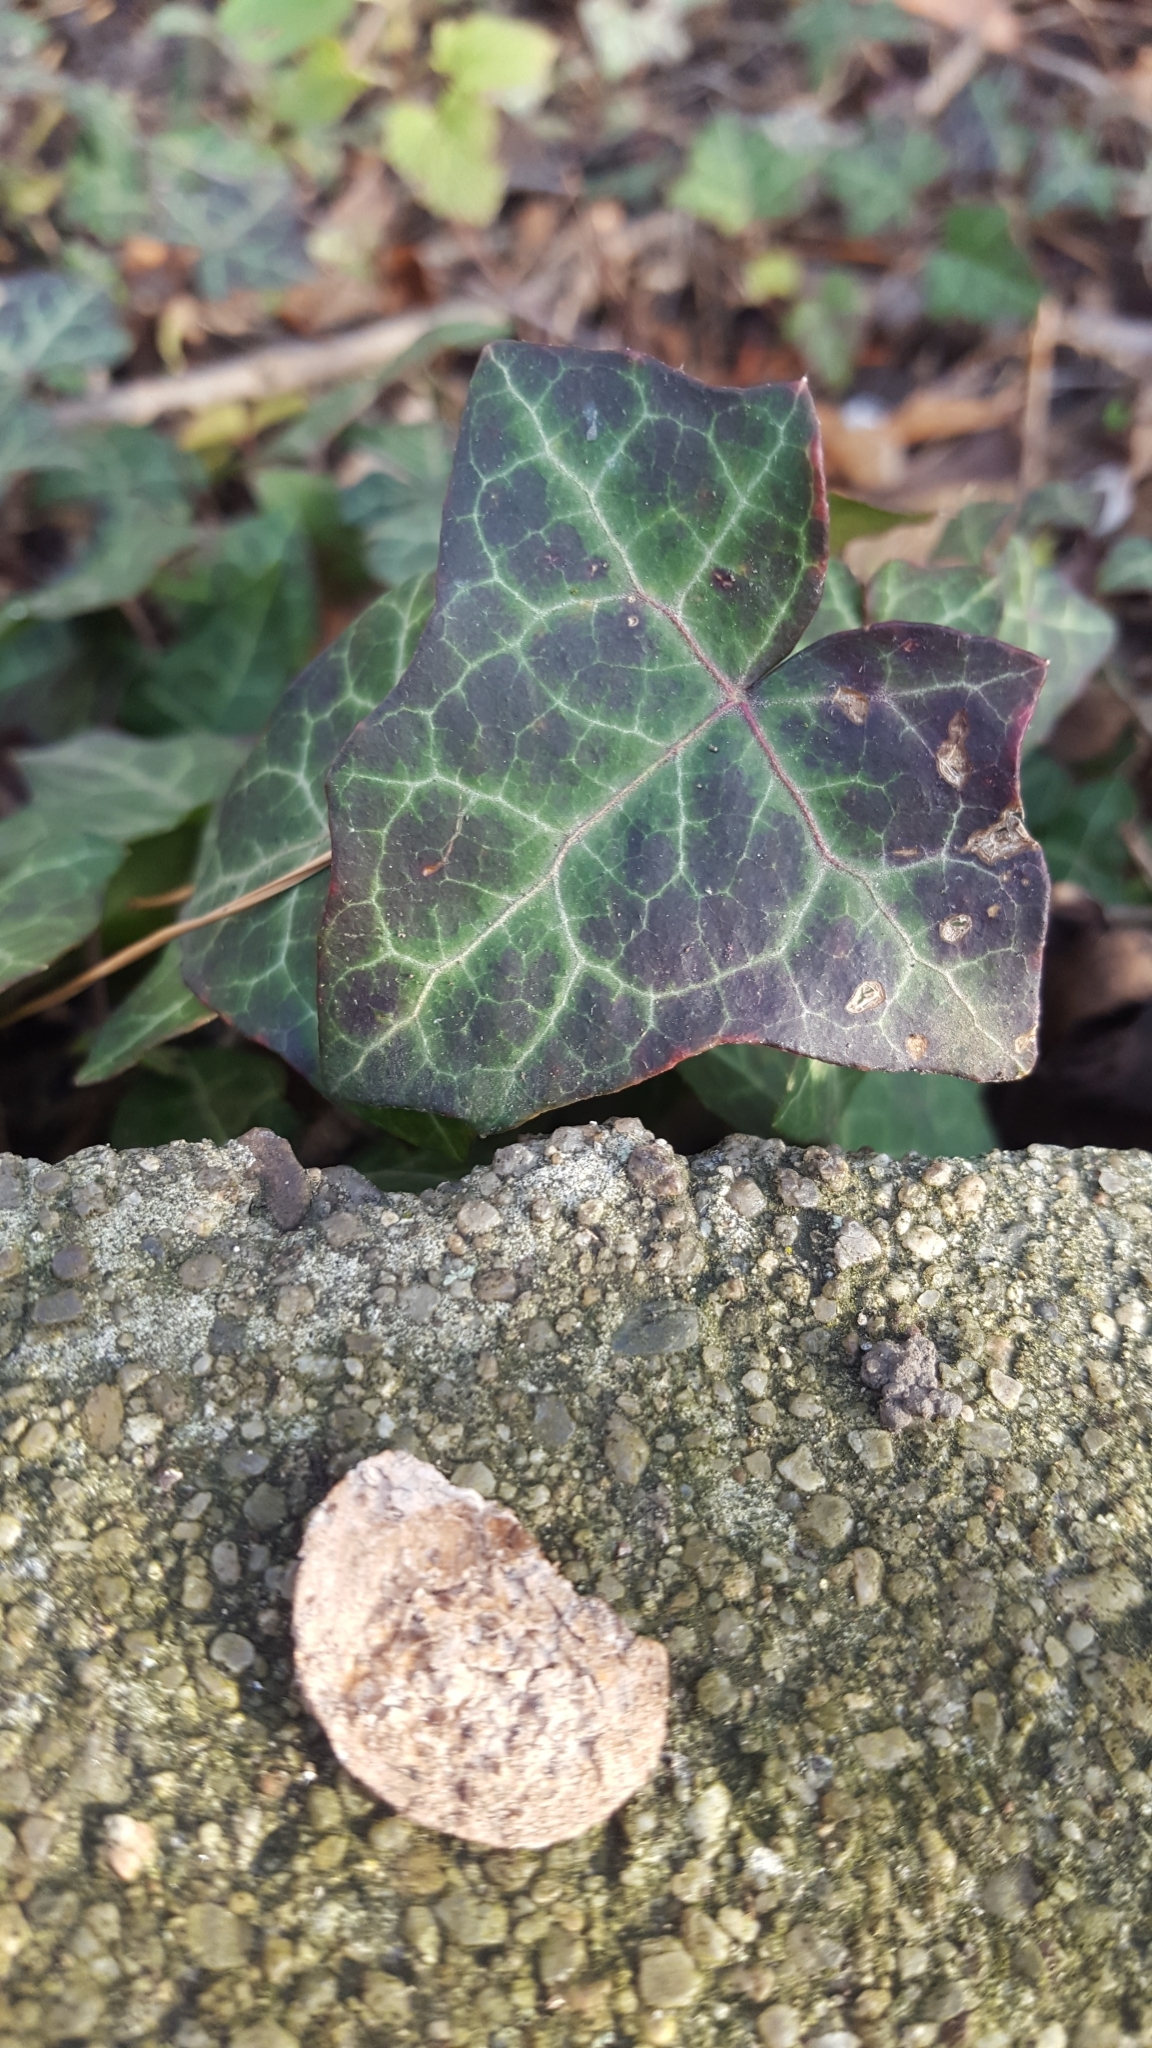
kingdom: Plantae
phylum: Tracheophyta
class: Magnoliopsida
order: Apiales
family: Araliaceae
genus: Hedera
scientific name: Hedera helix
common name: Ivy
